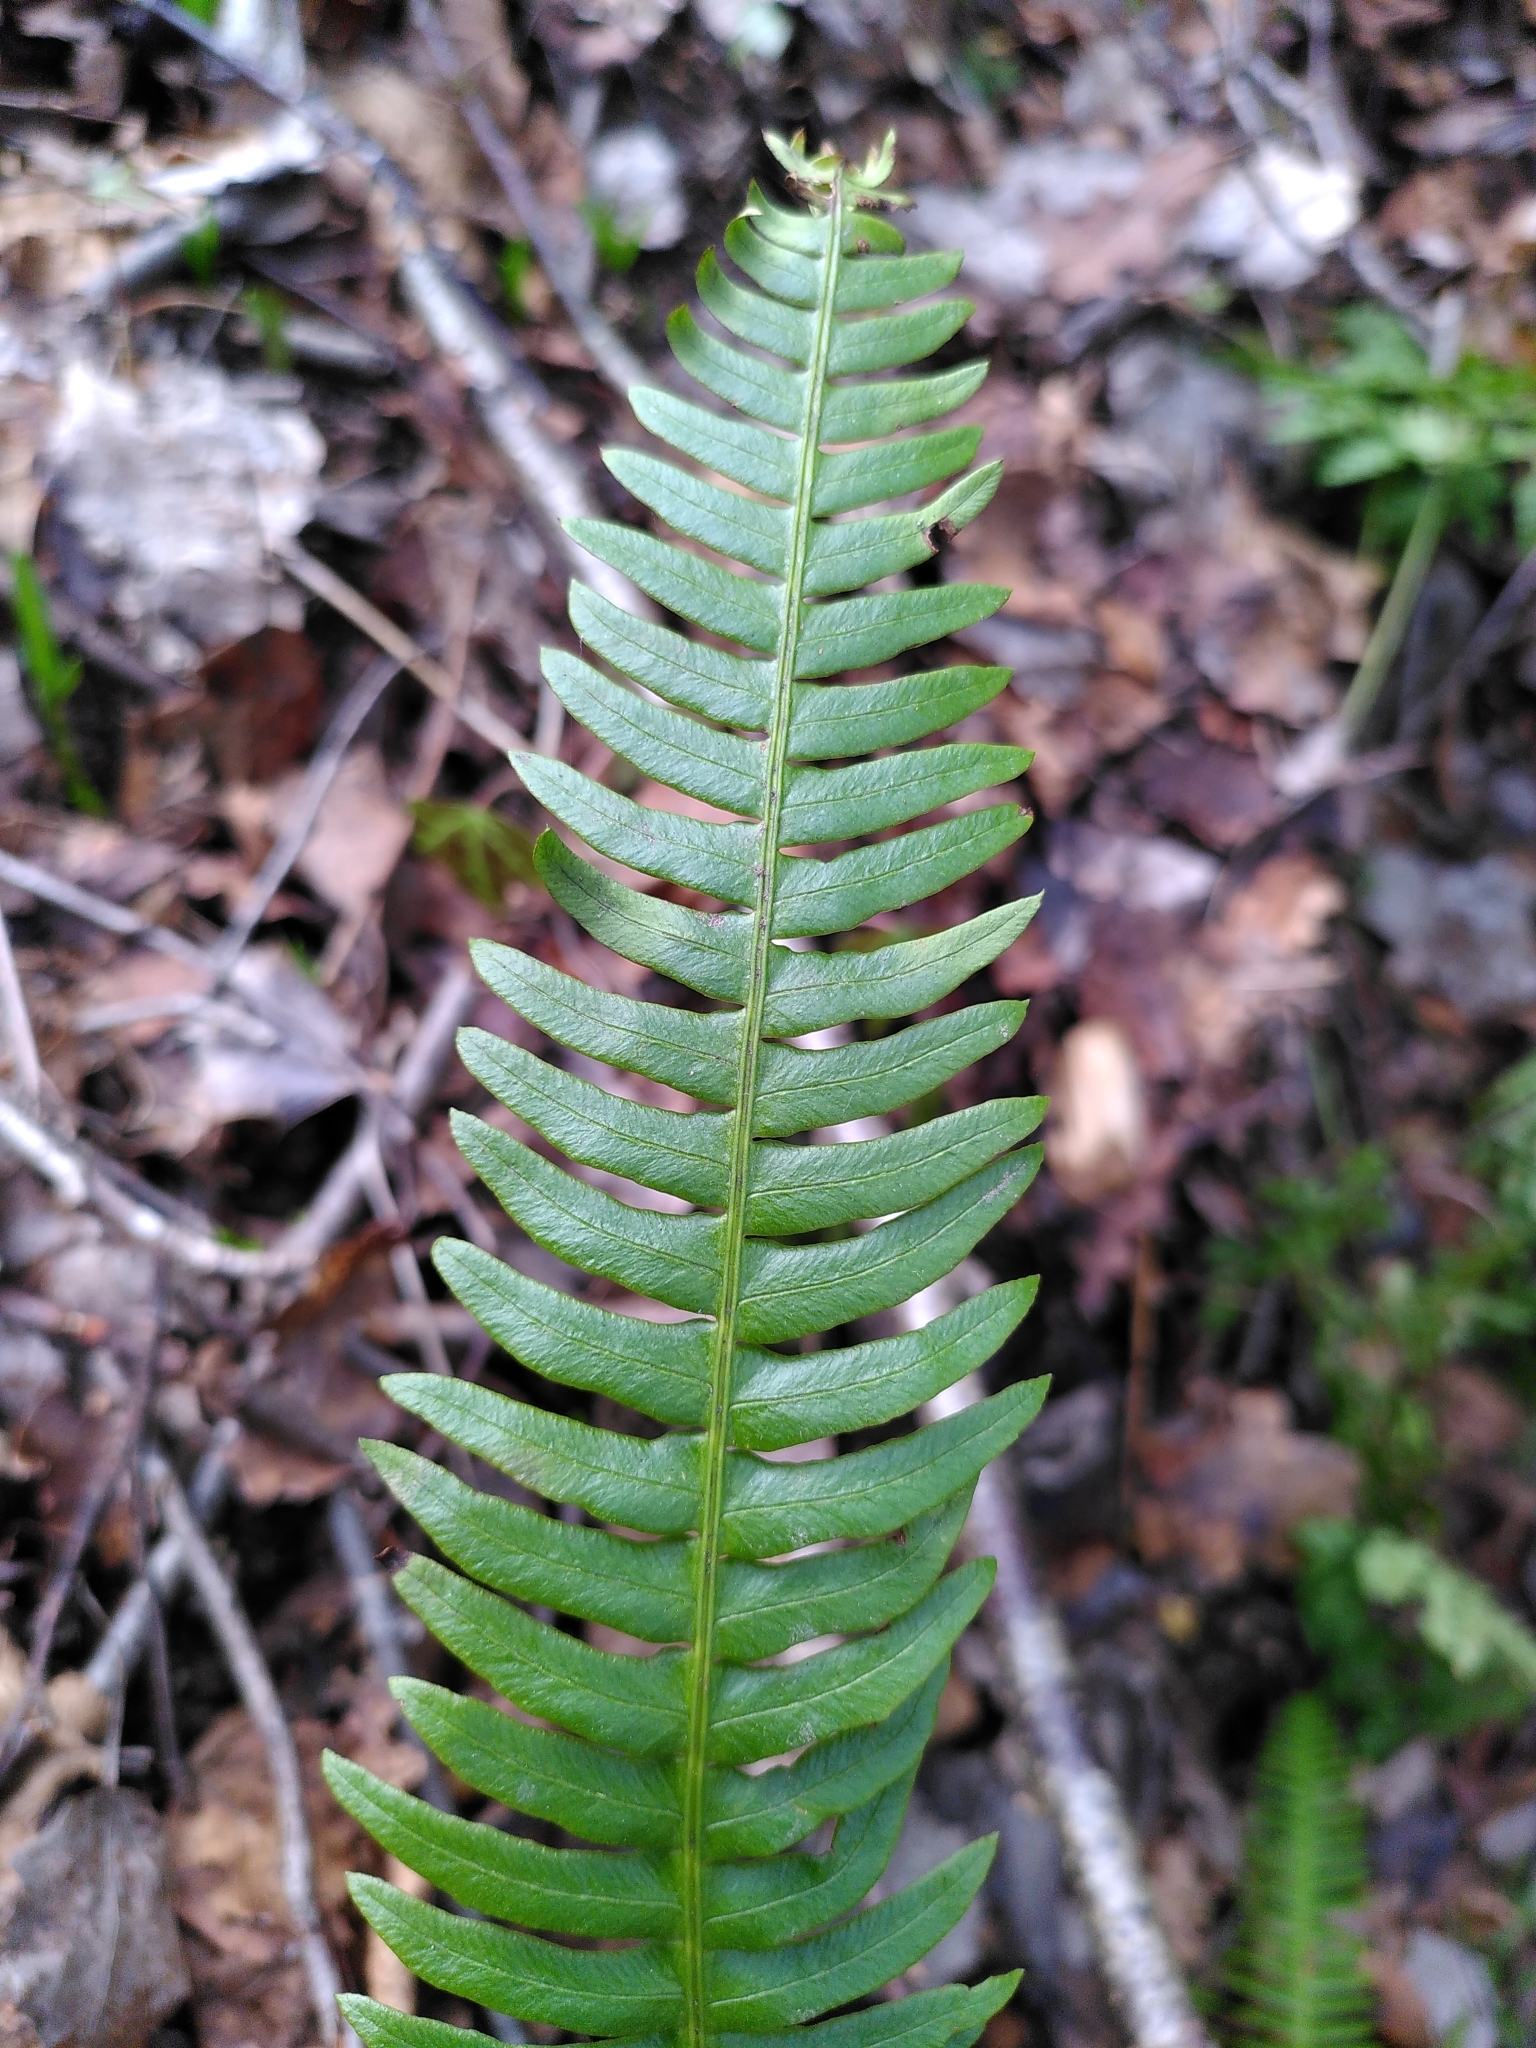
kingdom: Plantae
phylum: Tracheophyta
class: Polypodiopsida
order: Polypodiales
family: Blechnaceae
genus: Struthiopteris
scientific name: Struthiopteris spicant
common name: Deer fern
